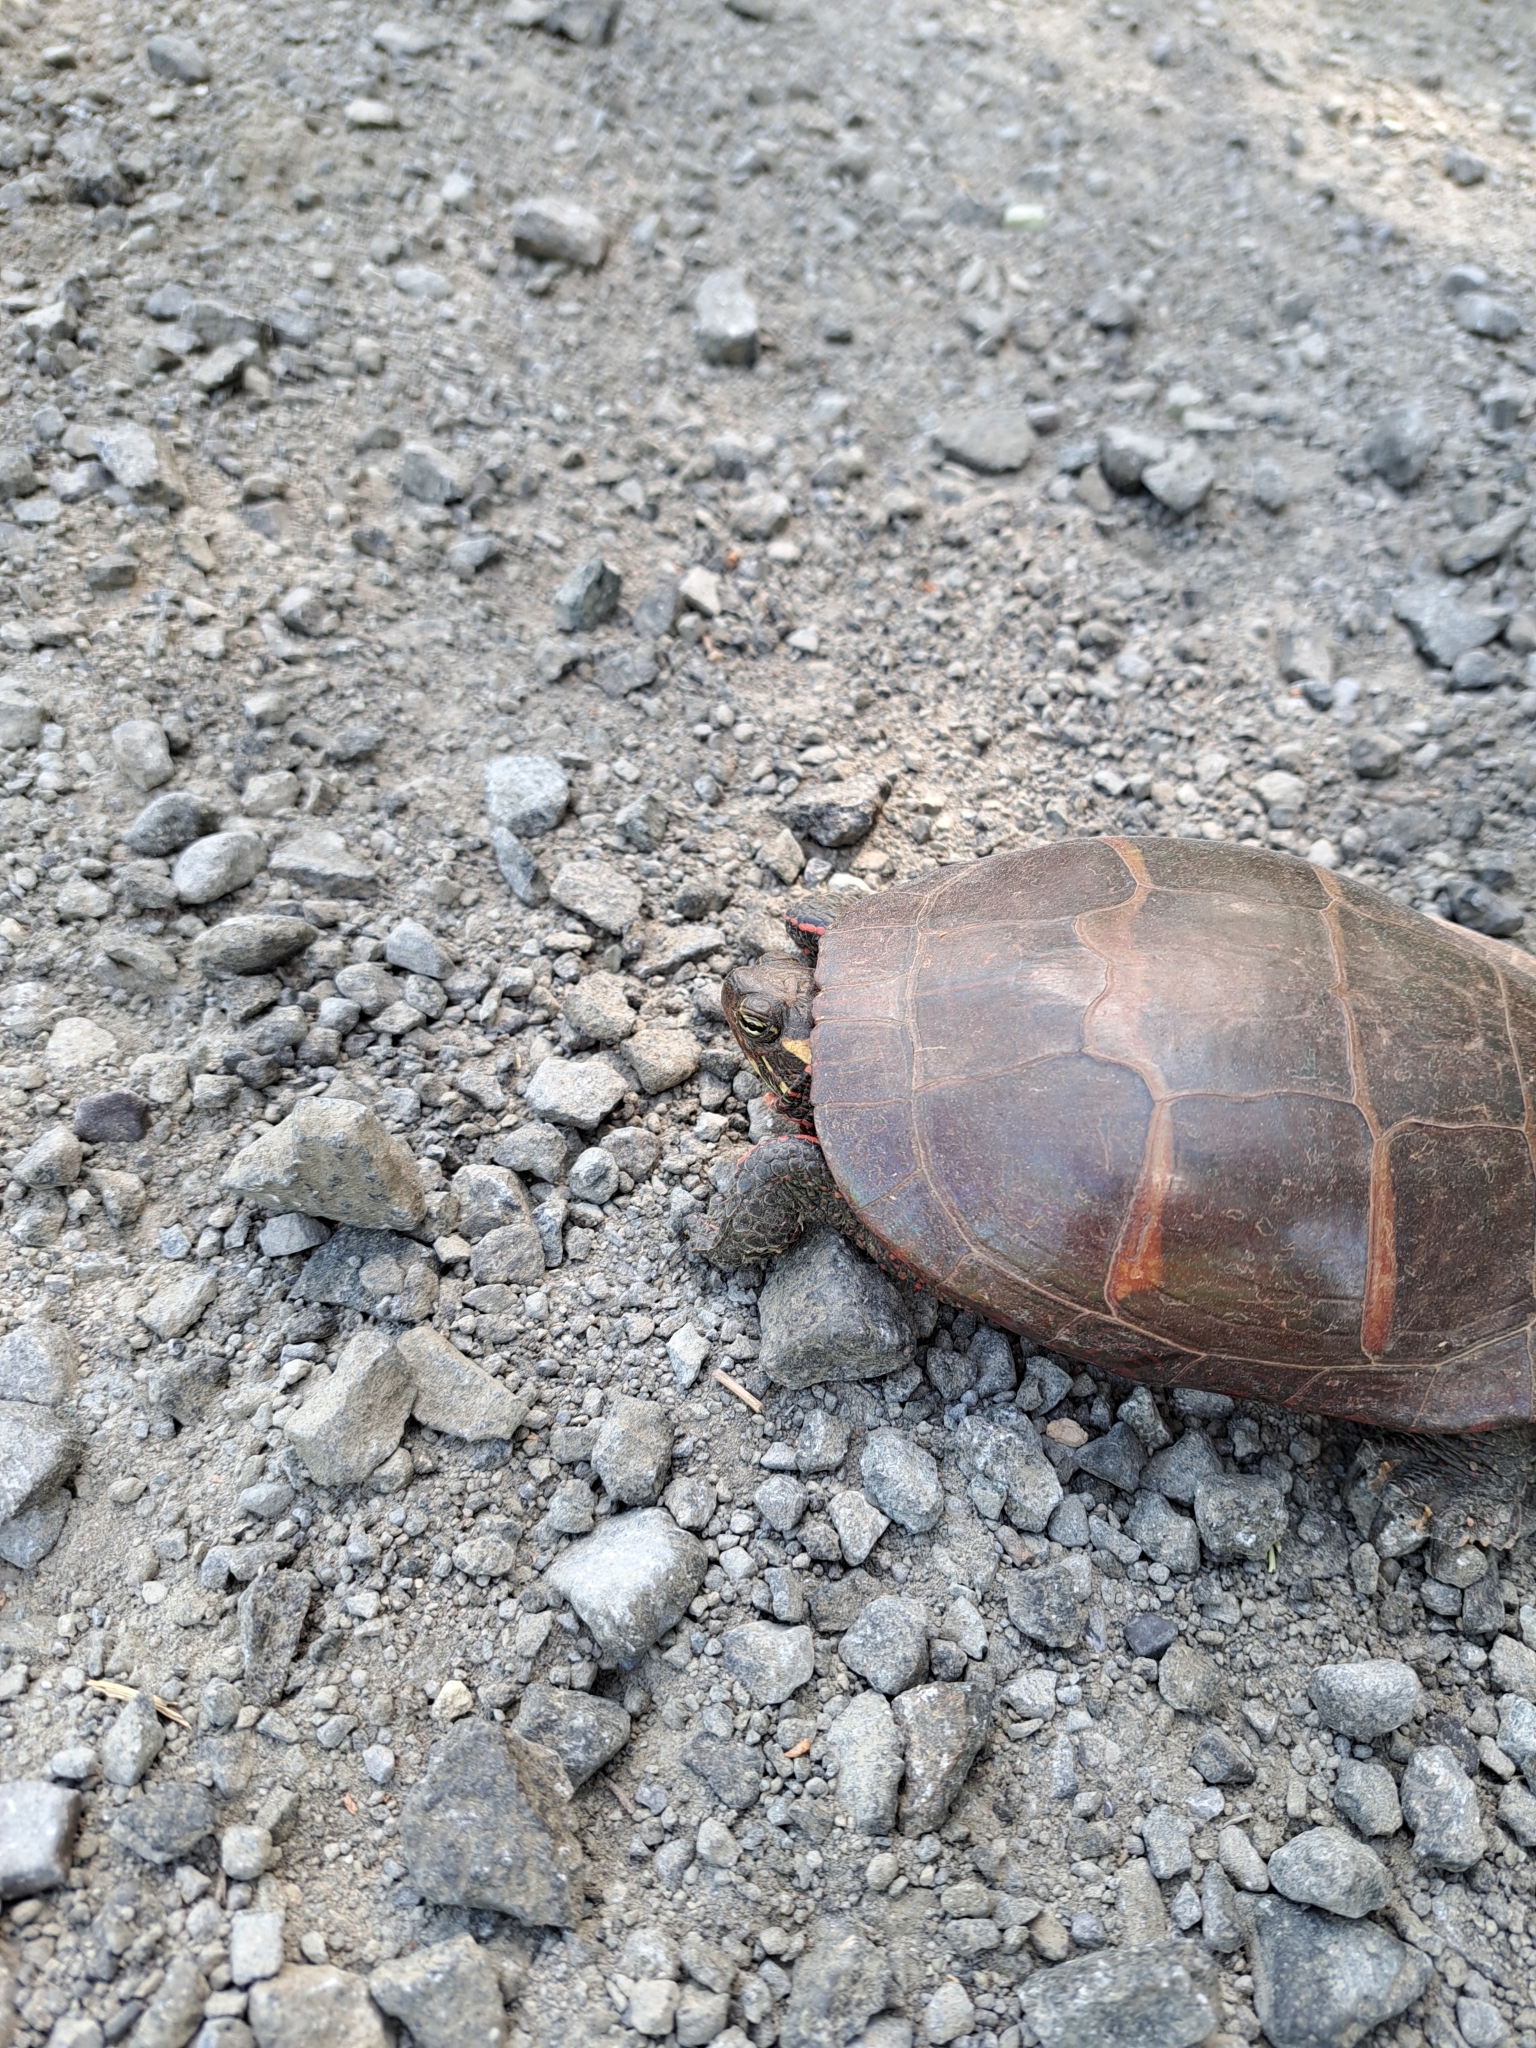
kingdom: Animalia
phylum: Chordata
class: Testudines
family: Emydidae
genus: Chrysemys
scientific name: Chrysemys picta
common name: Painted turtle
